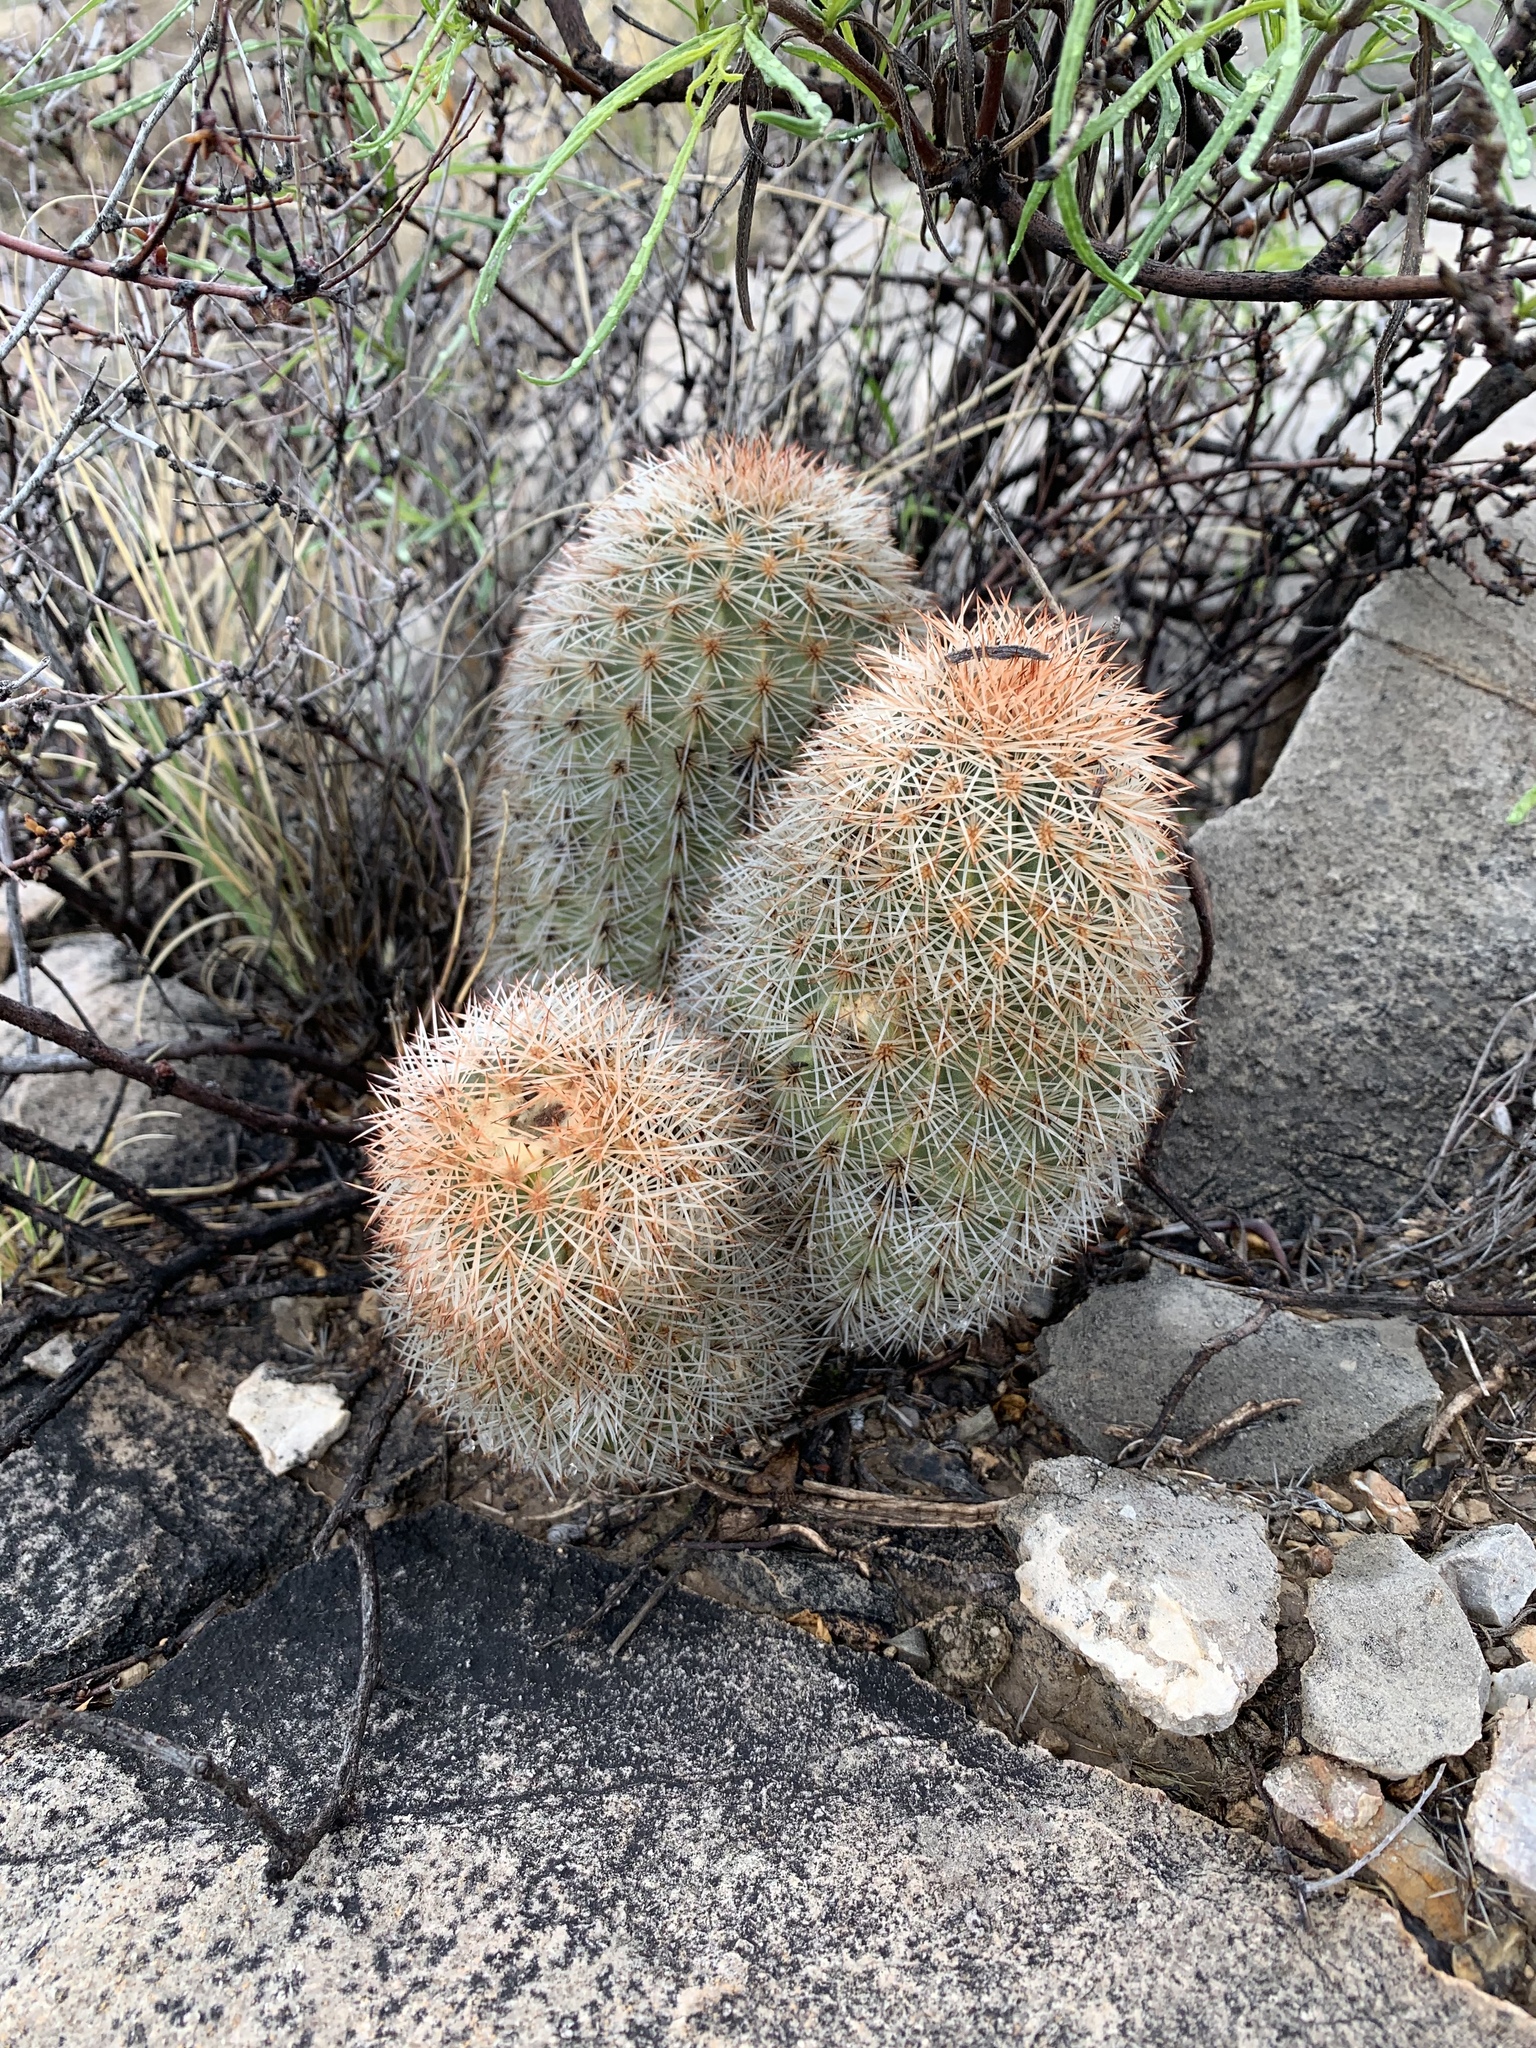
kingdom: Plantae
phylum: Tracheophyta
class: Magnoliopsida
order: Caryophyllales
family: Cactaceae
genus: Echinocereus
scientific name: Echinocereus dasyacanthus
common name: Spiny hedgehog cactus
